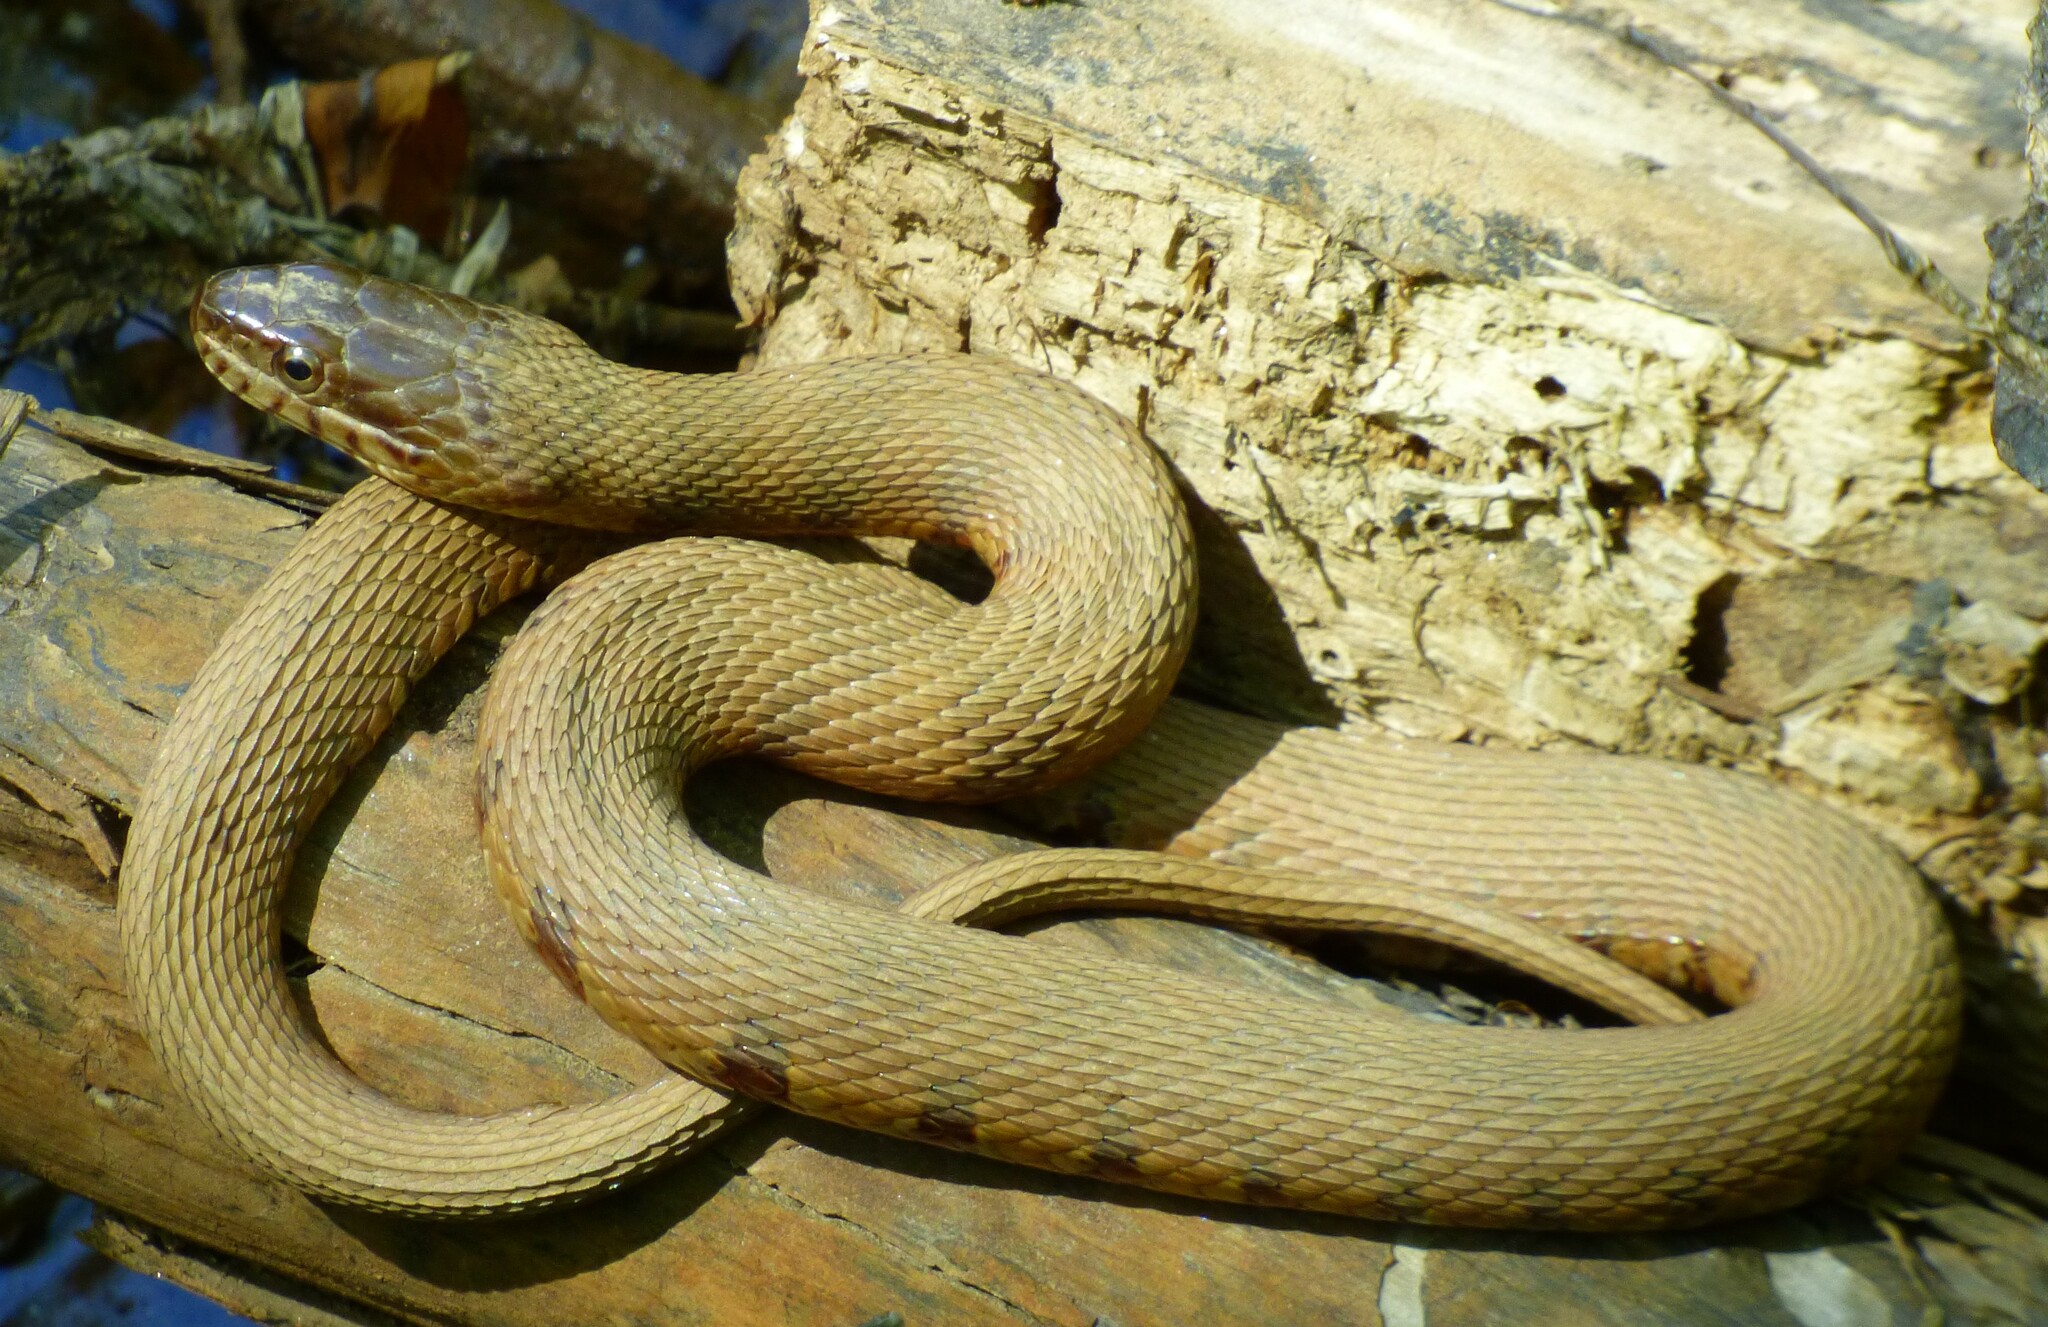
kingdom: Animalia
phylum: Chordata
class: Squamata
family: Colubridae
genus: Nerodia
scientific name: Nerodia sipedon
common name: Northern water snake
